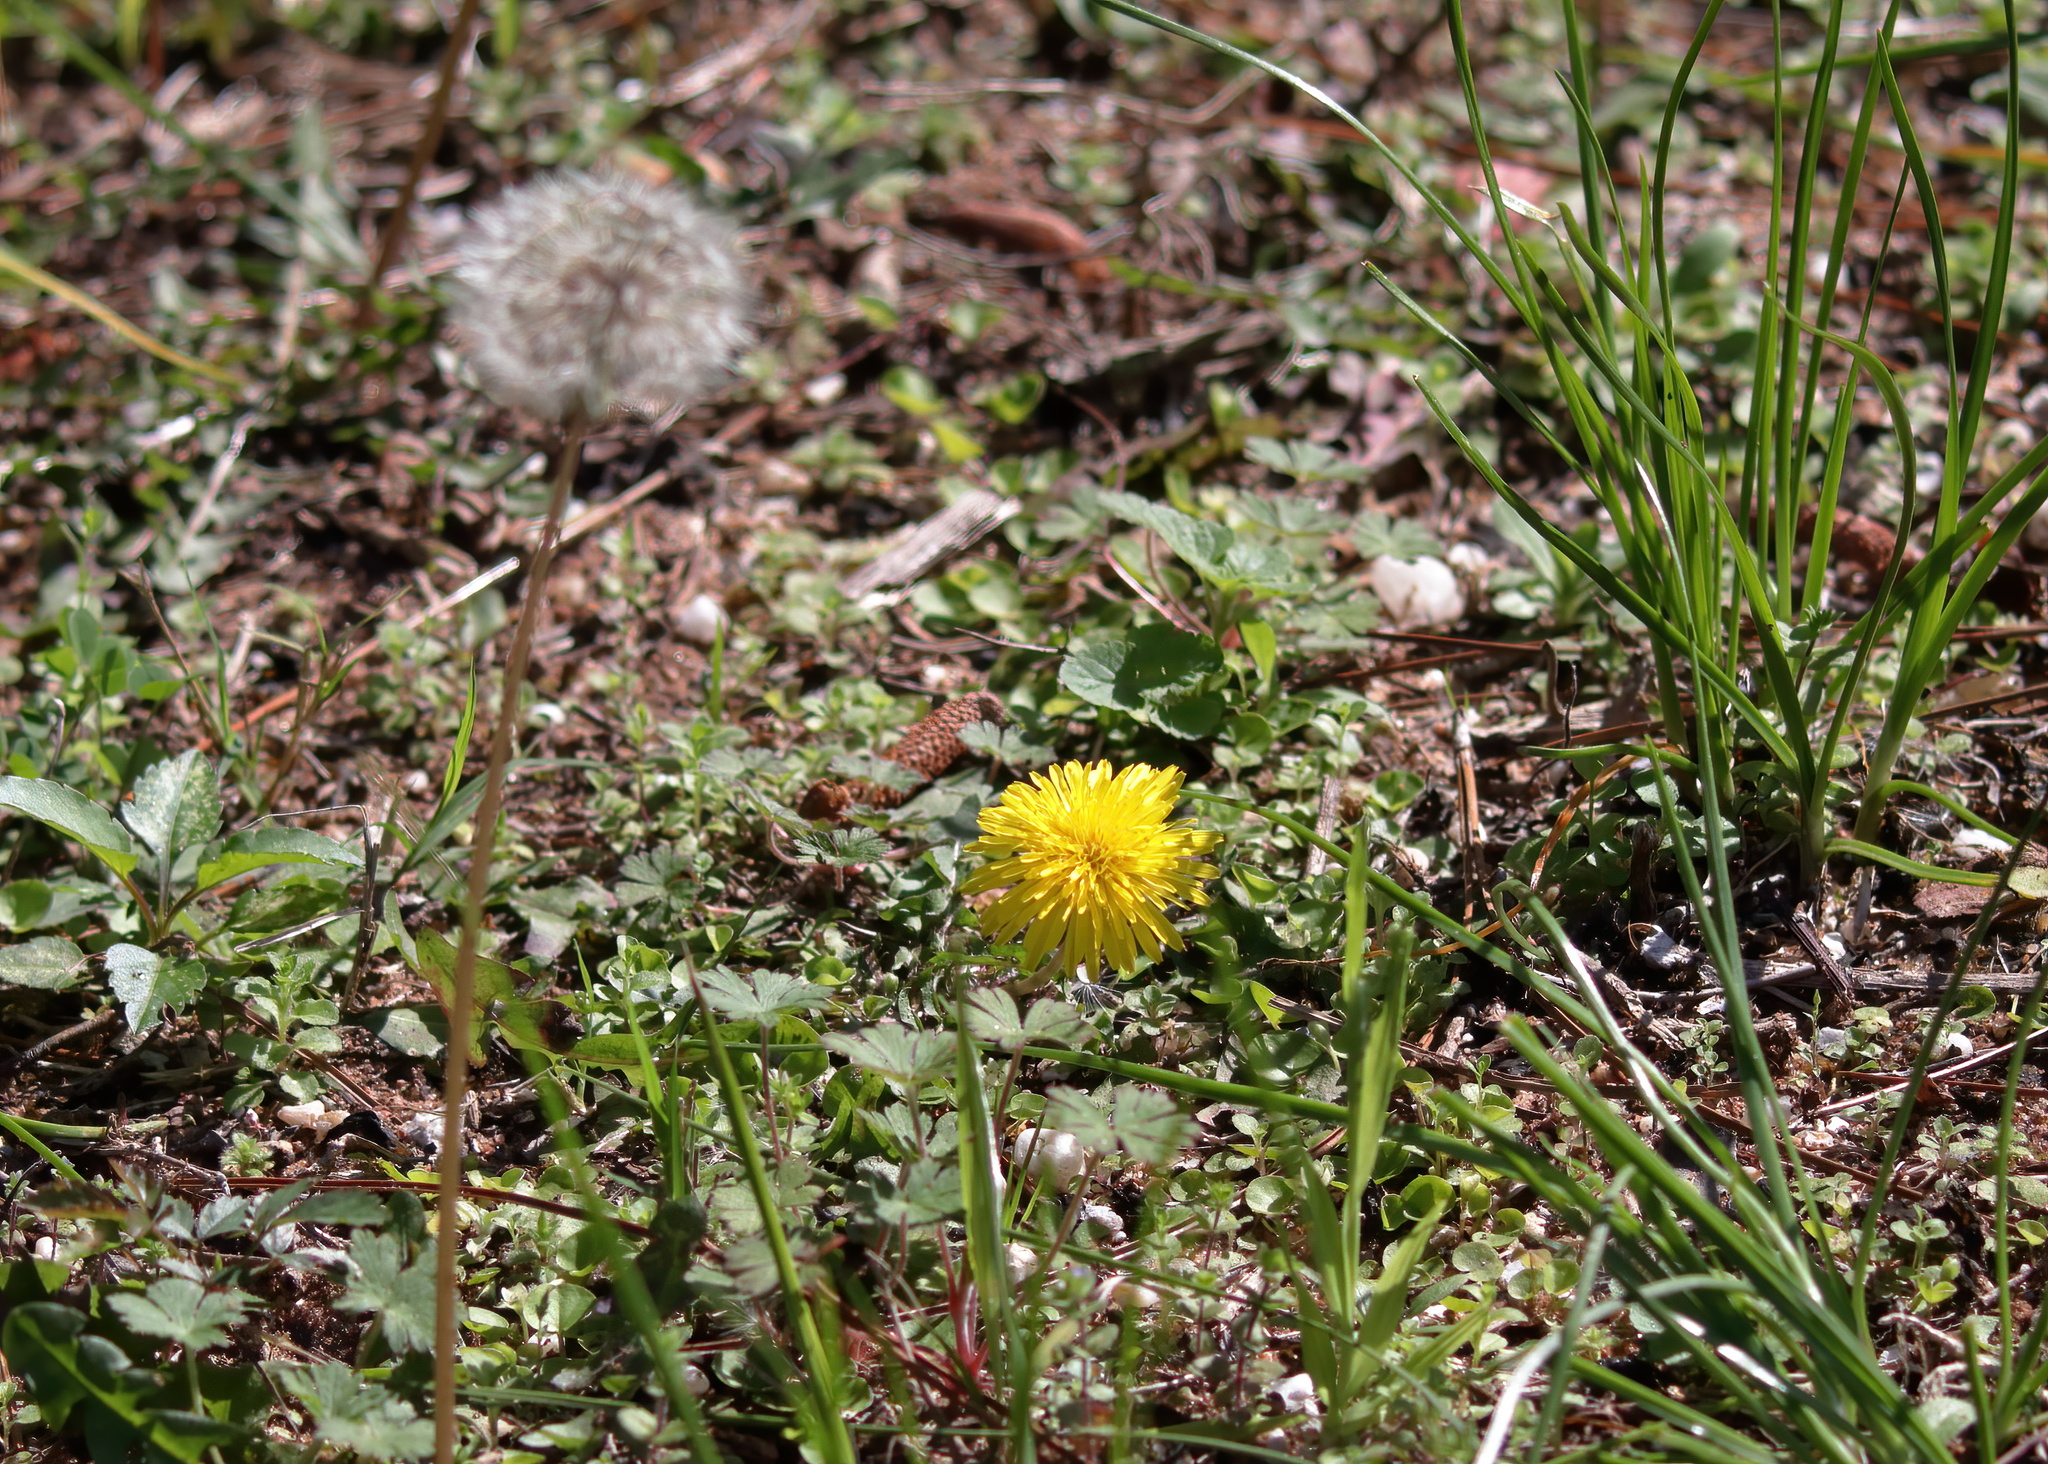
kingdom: Plantae
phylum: Tracheophyta
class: Magnoliopsida
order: Asterales
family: Asteraceae
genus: Taraxacum
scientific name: Taraxacum officinale
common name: Common dandelion
